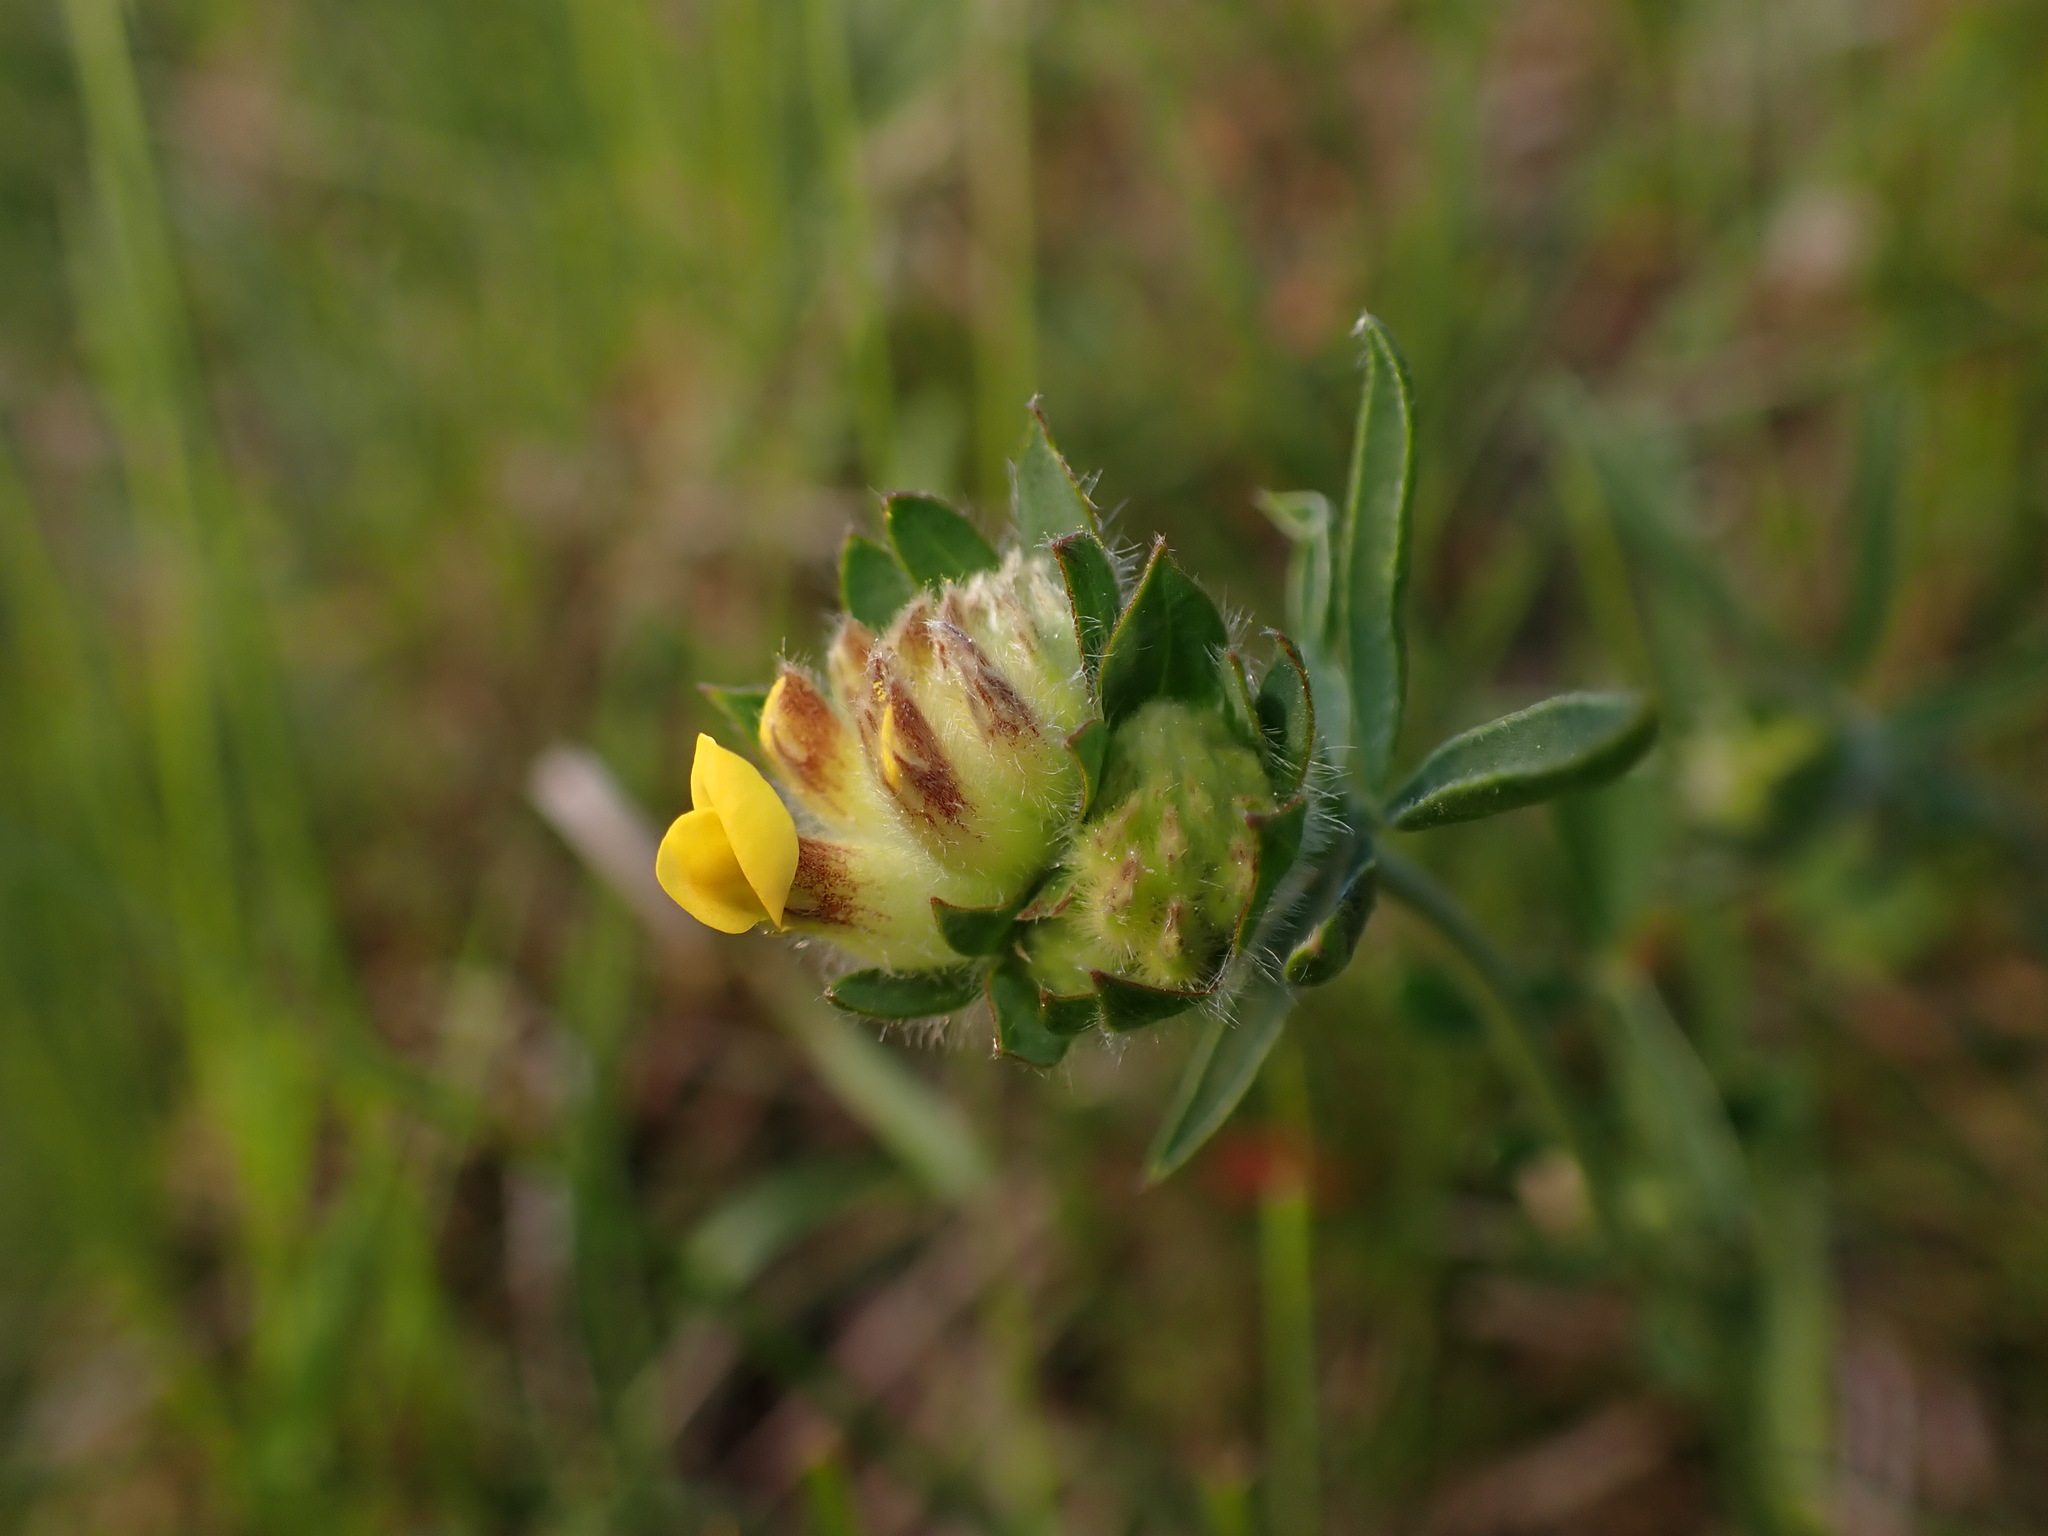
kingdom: Plantae
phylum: Tracheophyta
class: Magnoliopsida
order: Fabales
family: Fabaceae
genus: Anthyllis
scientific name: Anthyllis vulneraria
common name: Kidney vetch
